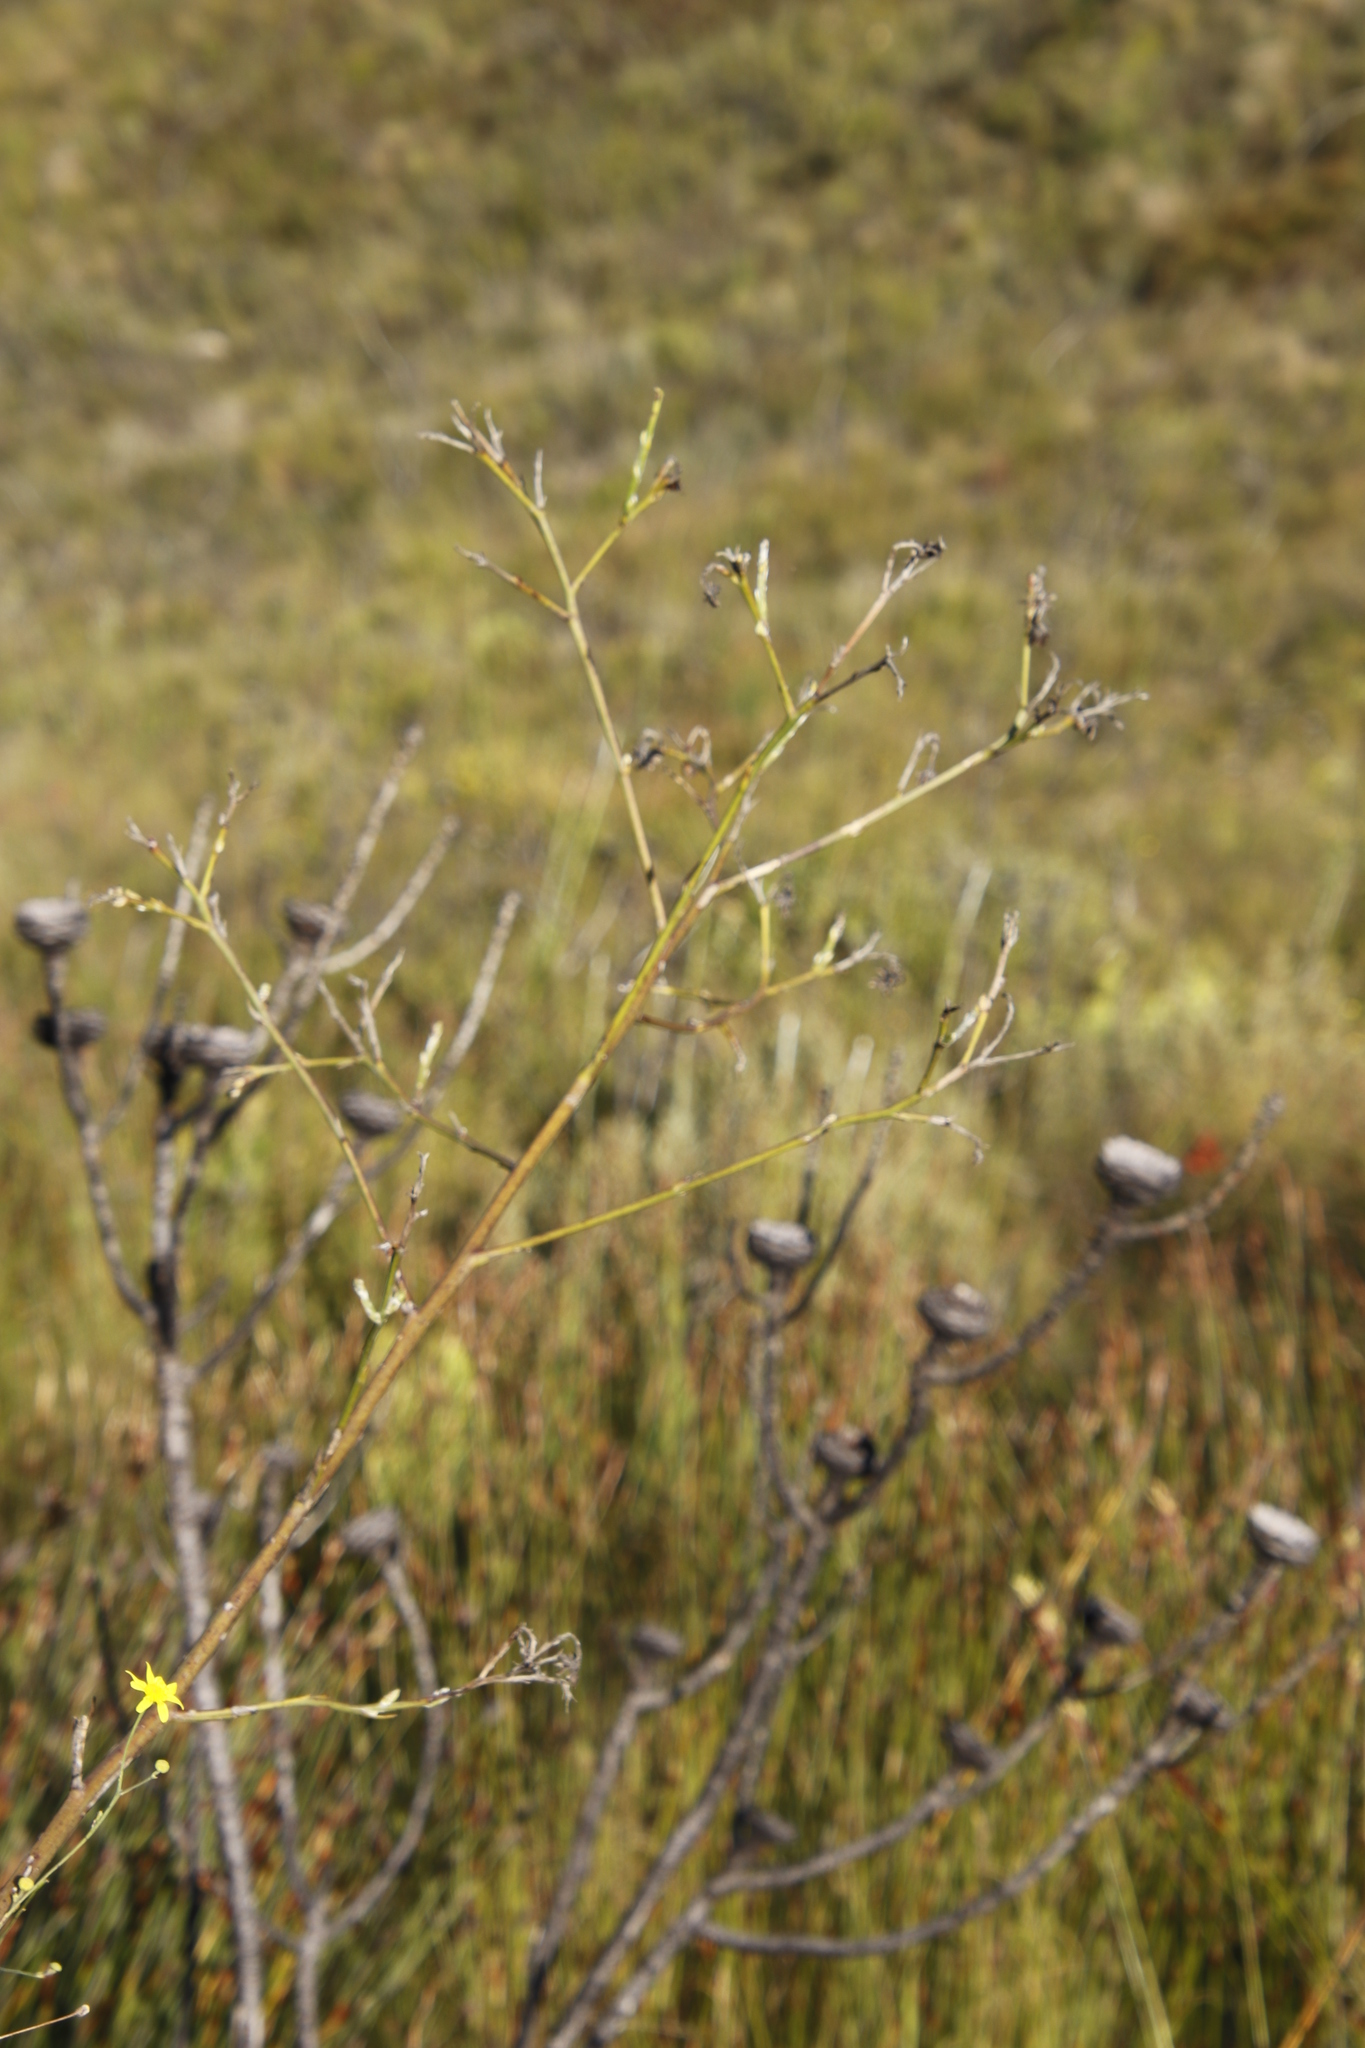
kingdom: Plantae
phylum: Tracheophyta
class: Magnoliopsida
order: Asterales
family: Asteraceae
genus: Othonna
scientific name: Othonna quinquedentata
